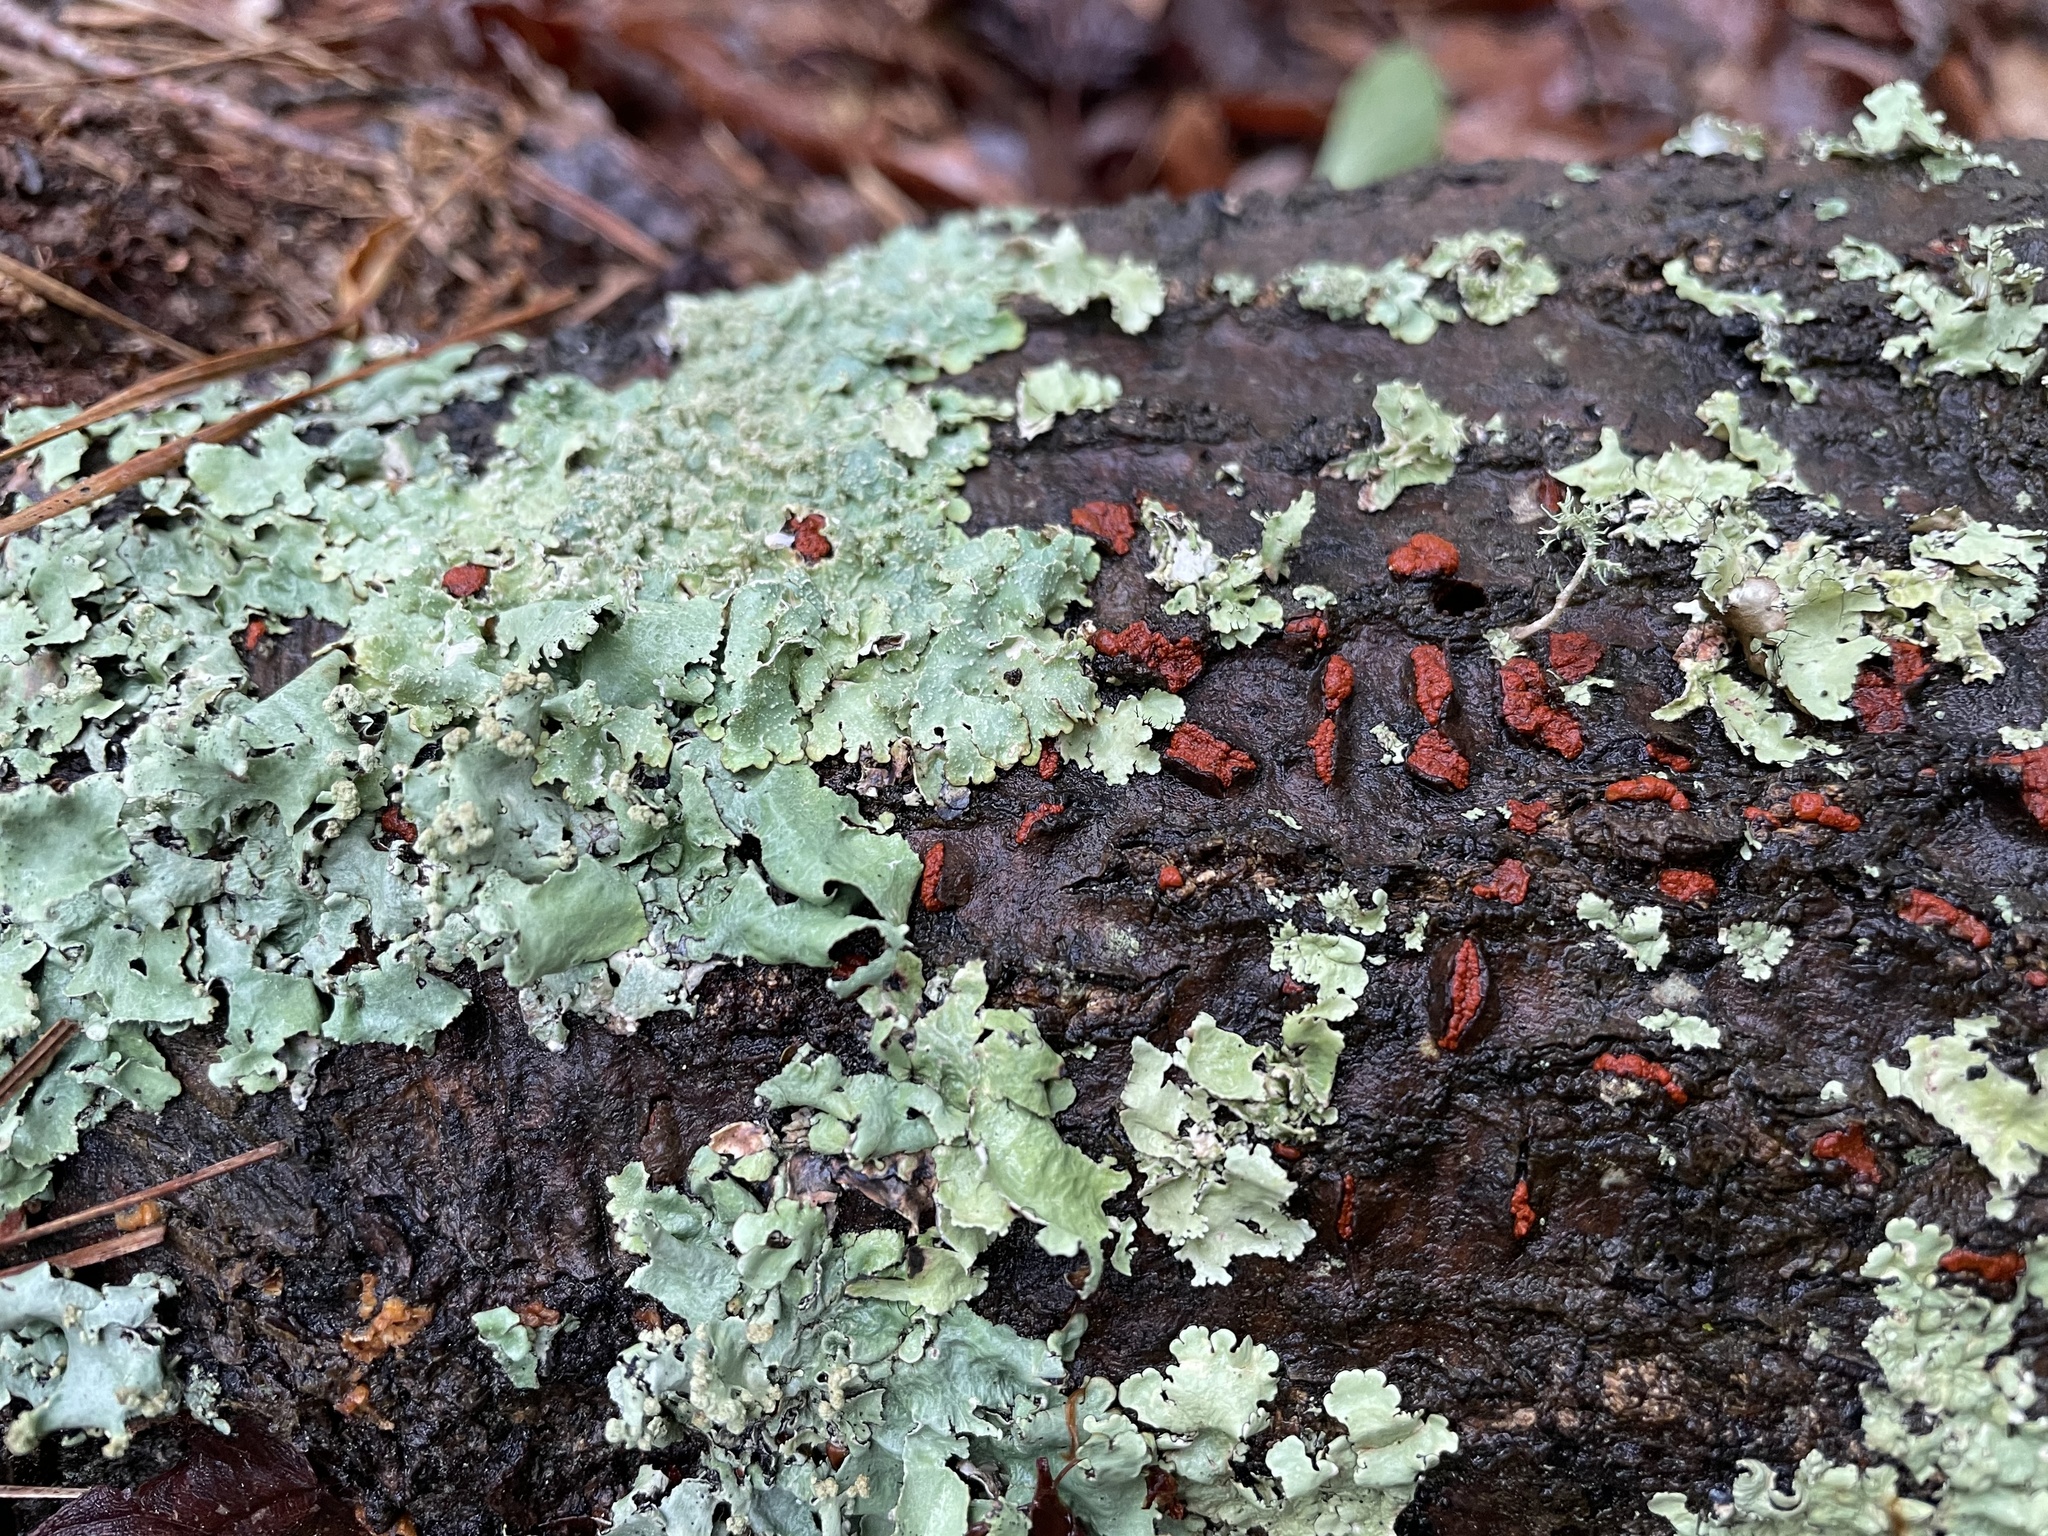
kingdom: Fungi
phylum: Ascomycota
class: Sordariomycetes
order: Diaporthales
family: Cryphonectriaceae
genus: Amphilogia
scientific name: Amphilogia gyrosa
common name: Orange hobnail canker
